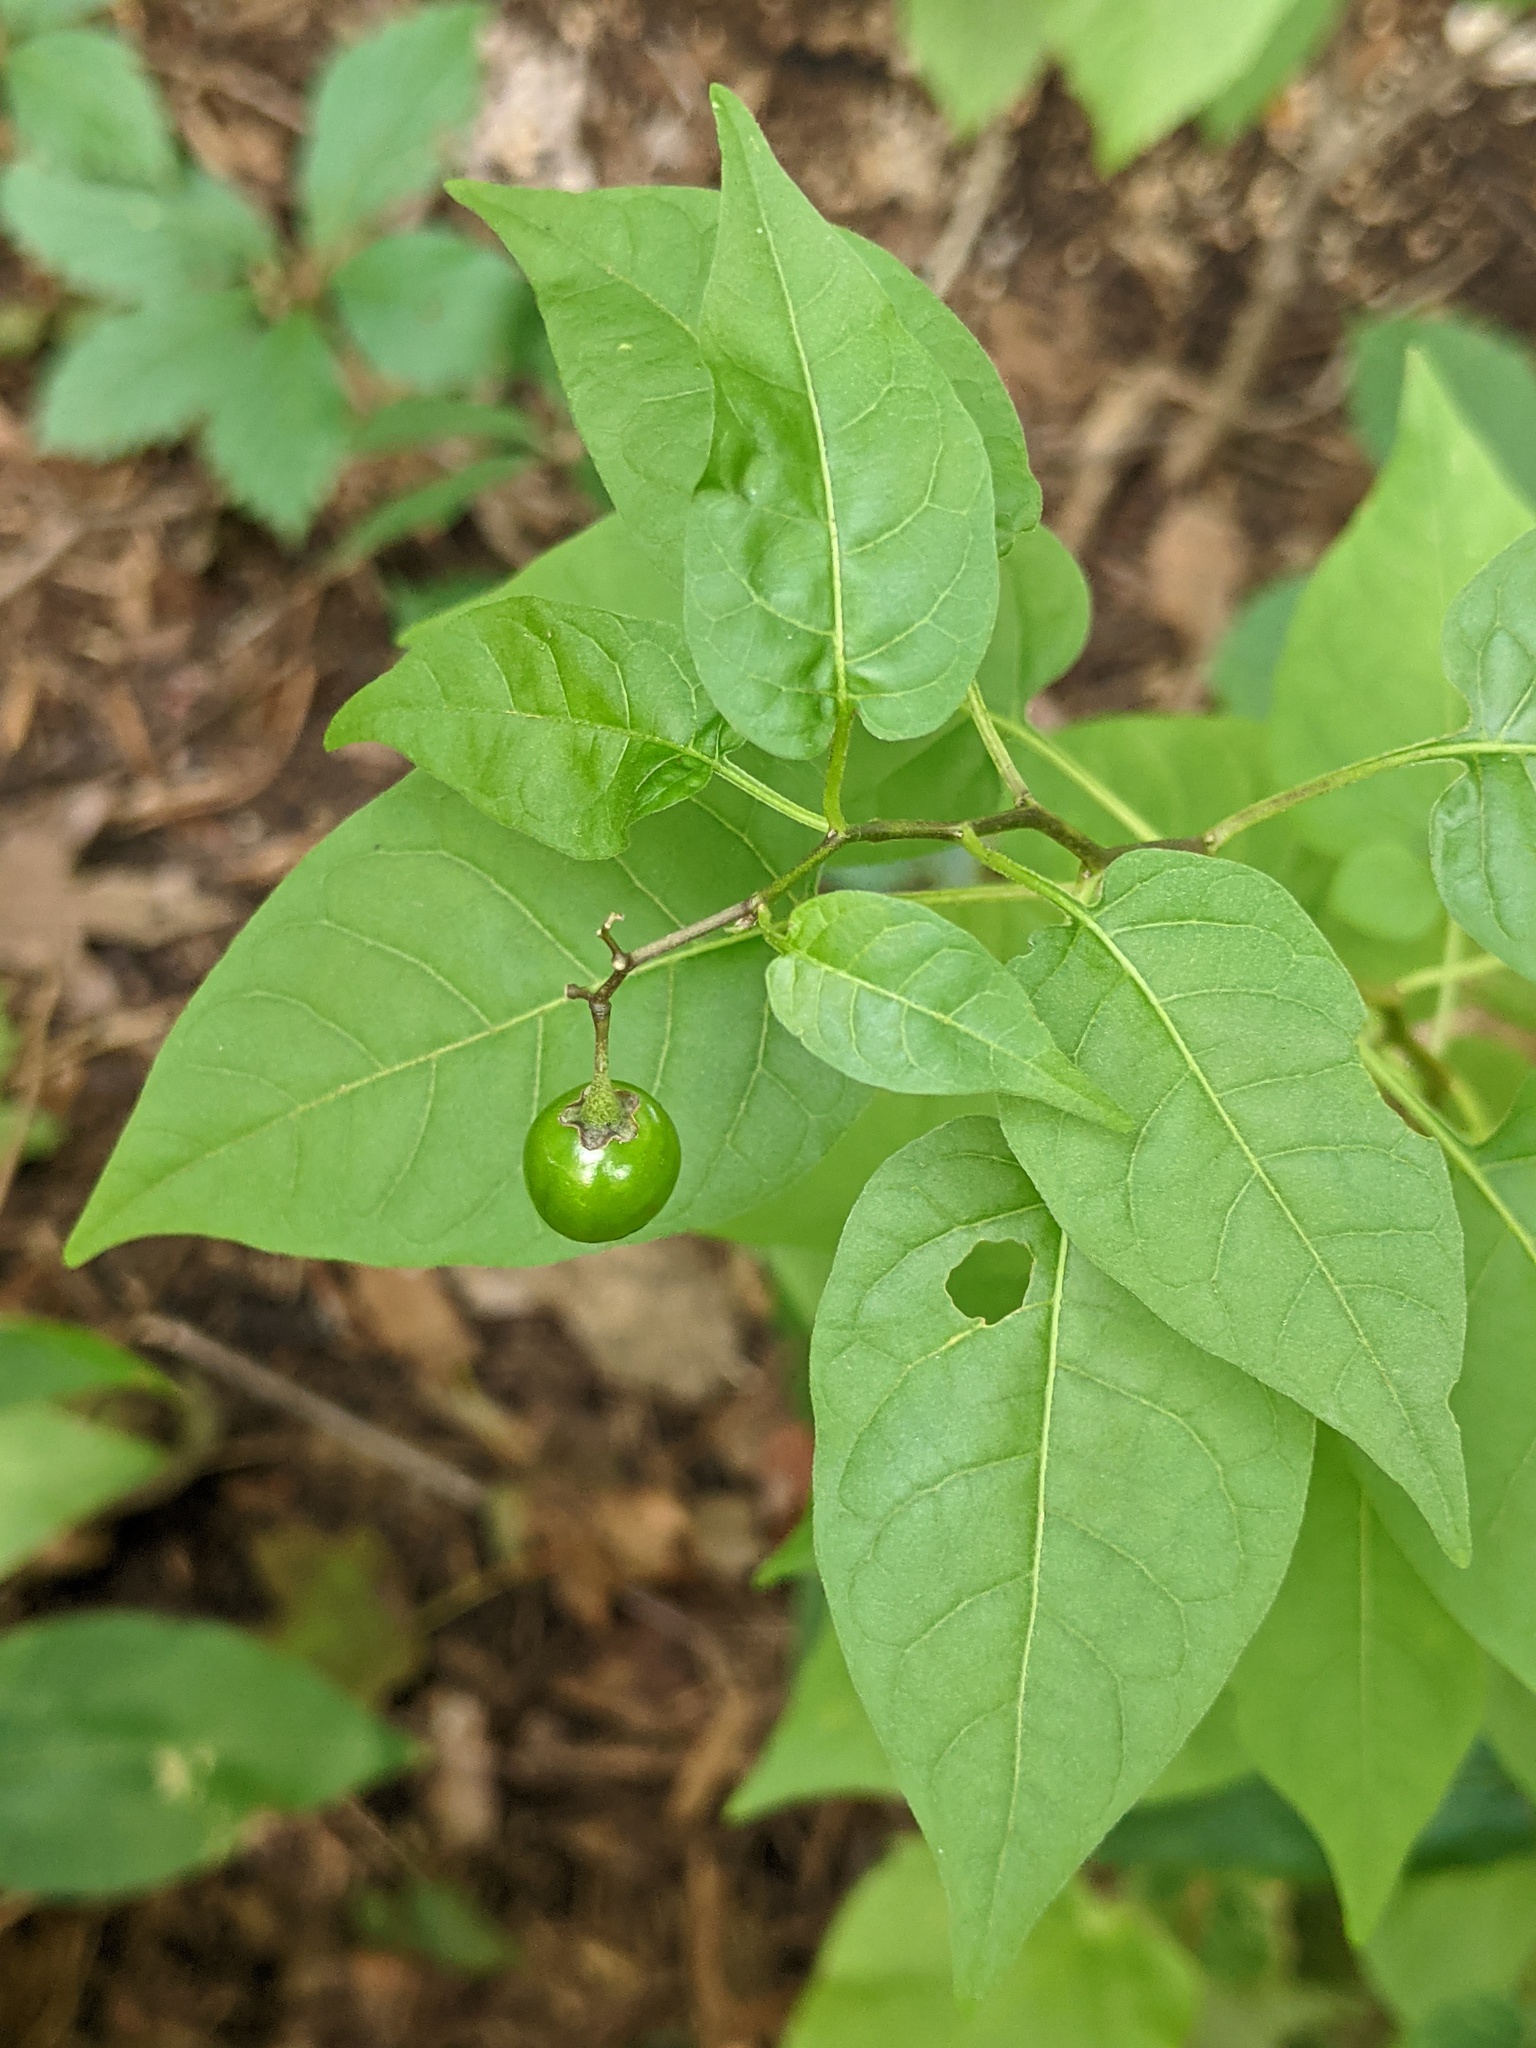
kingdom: Plantae
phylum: Tracheophyta
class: Magnoliopsida
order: Solanales
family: Solanaceae
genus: Solanum
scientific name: Solanum dulcamara
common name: Climbing nightshade
